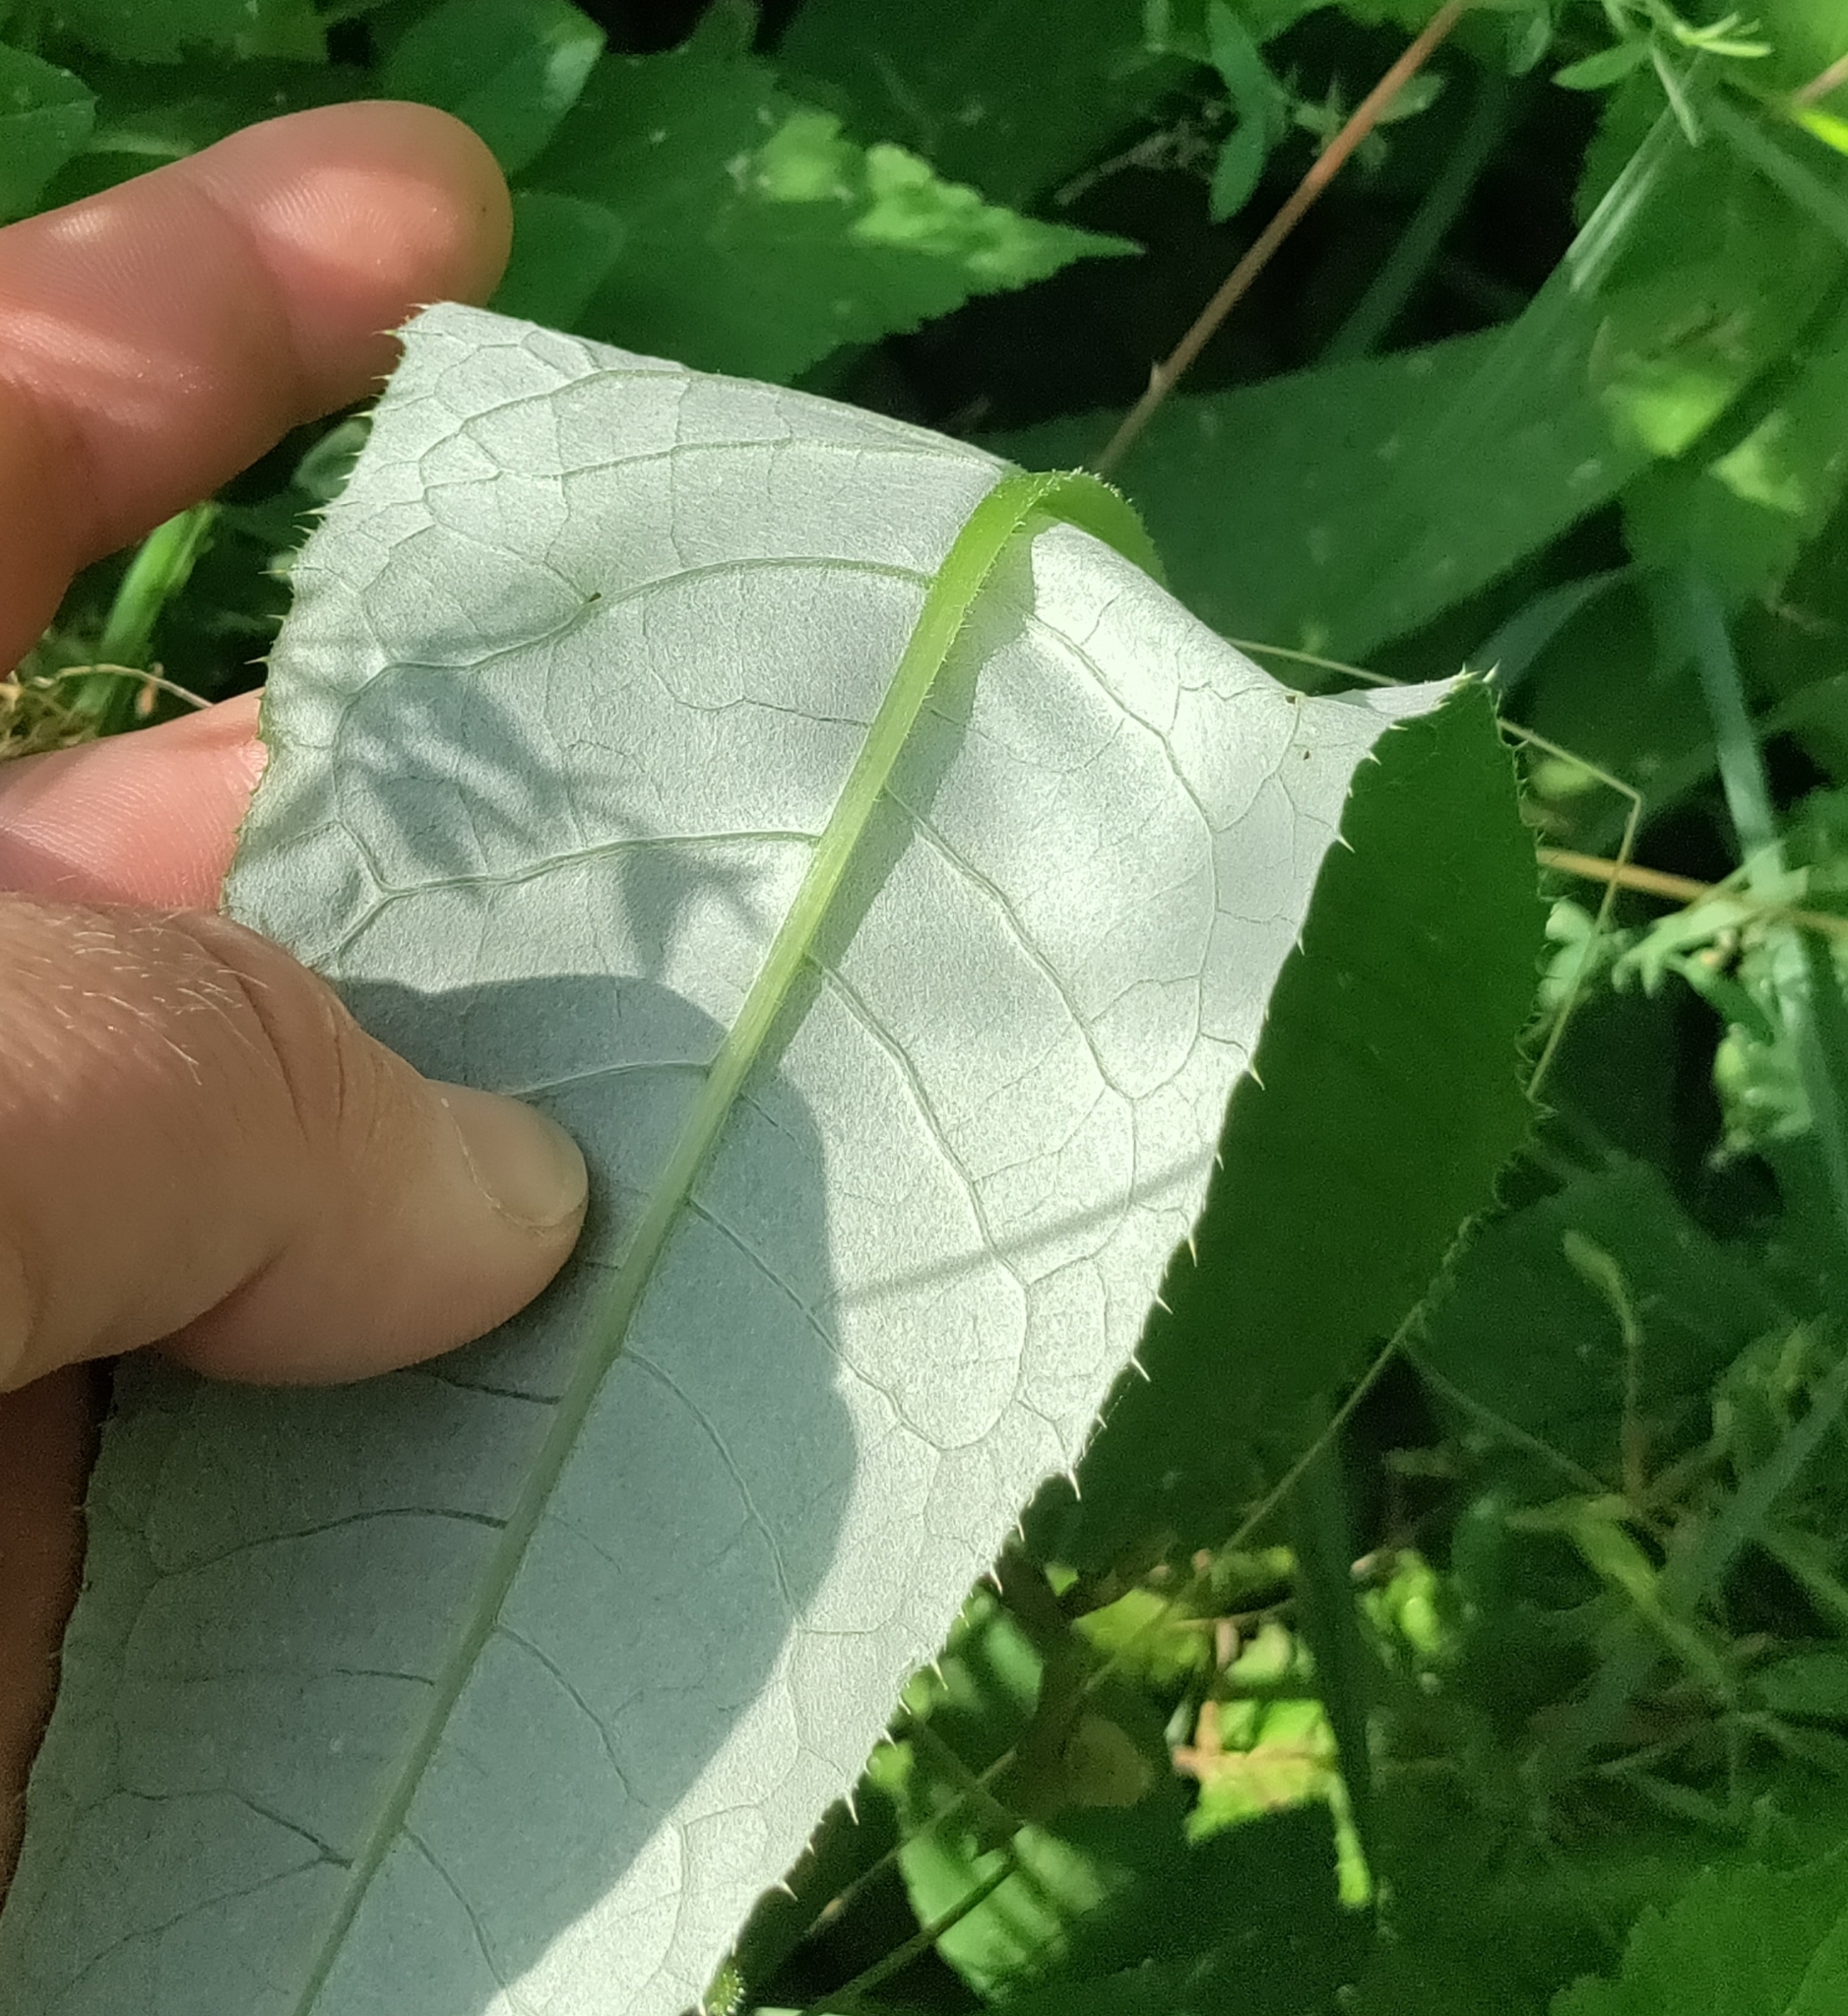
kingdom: Plantae
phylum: Tracheophyta
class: Magnoliopsida
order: Asterales
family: Asteraceae
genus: Cirsium
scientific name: Cirsium heterophyllum
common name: Melancholy thistle
